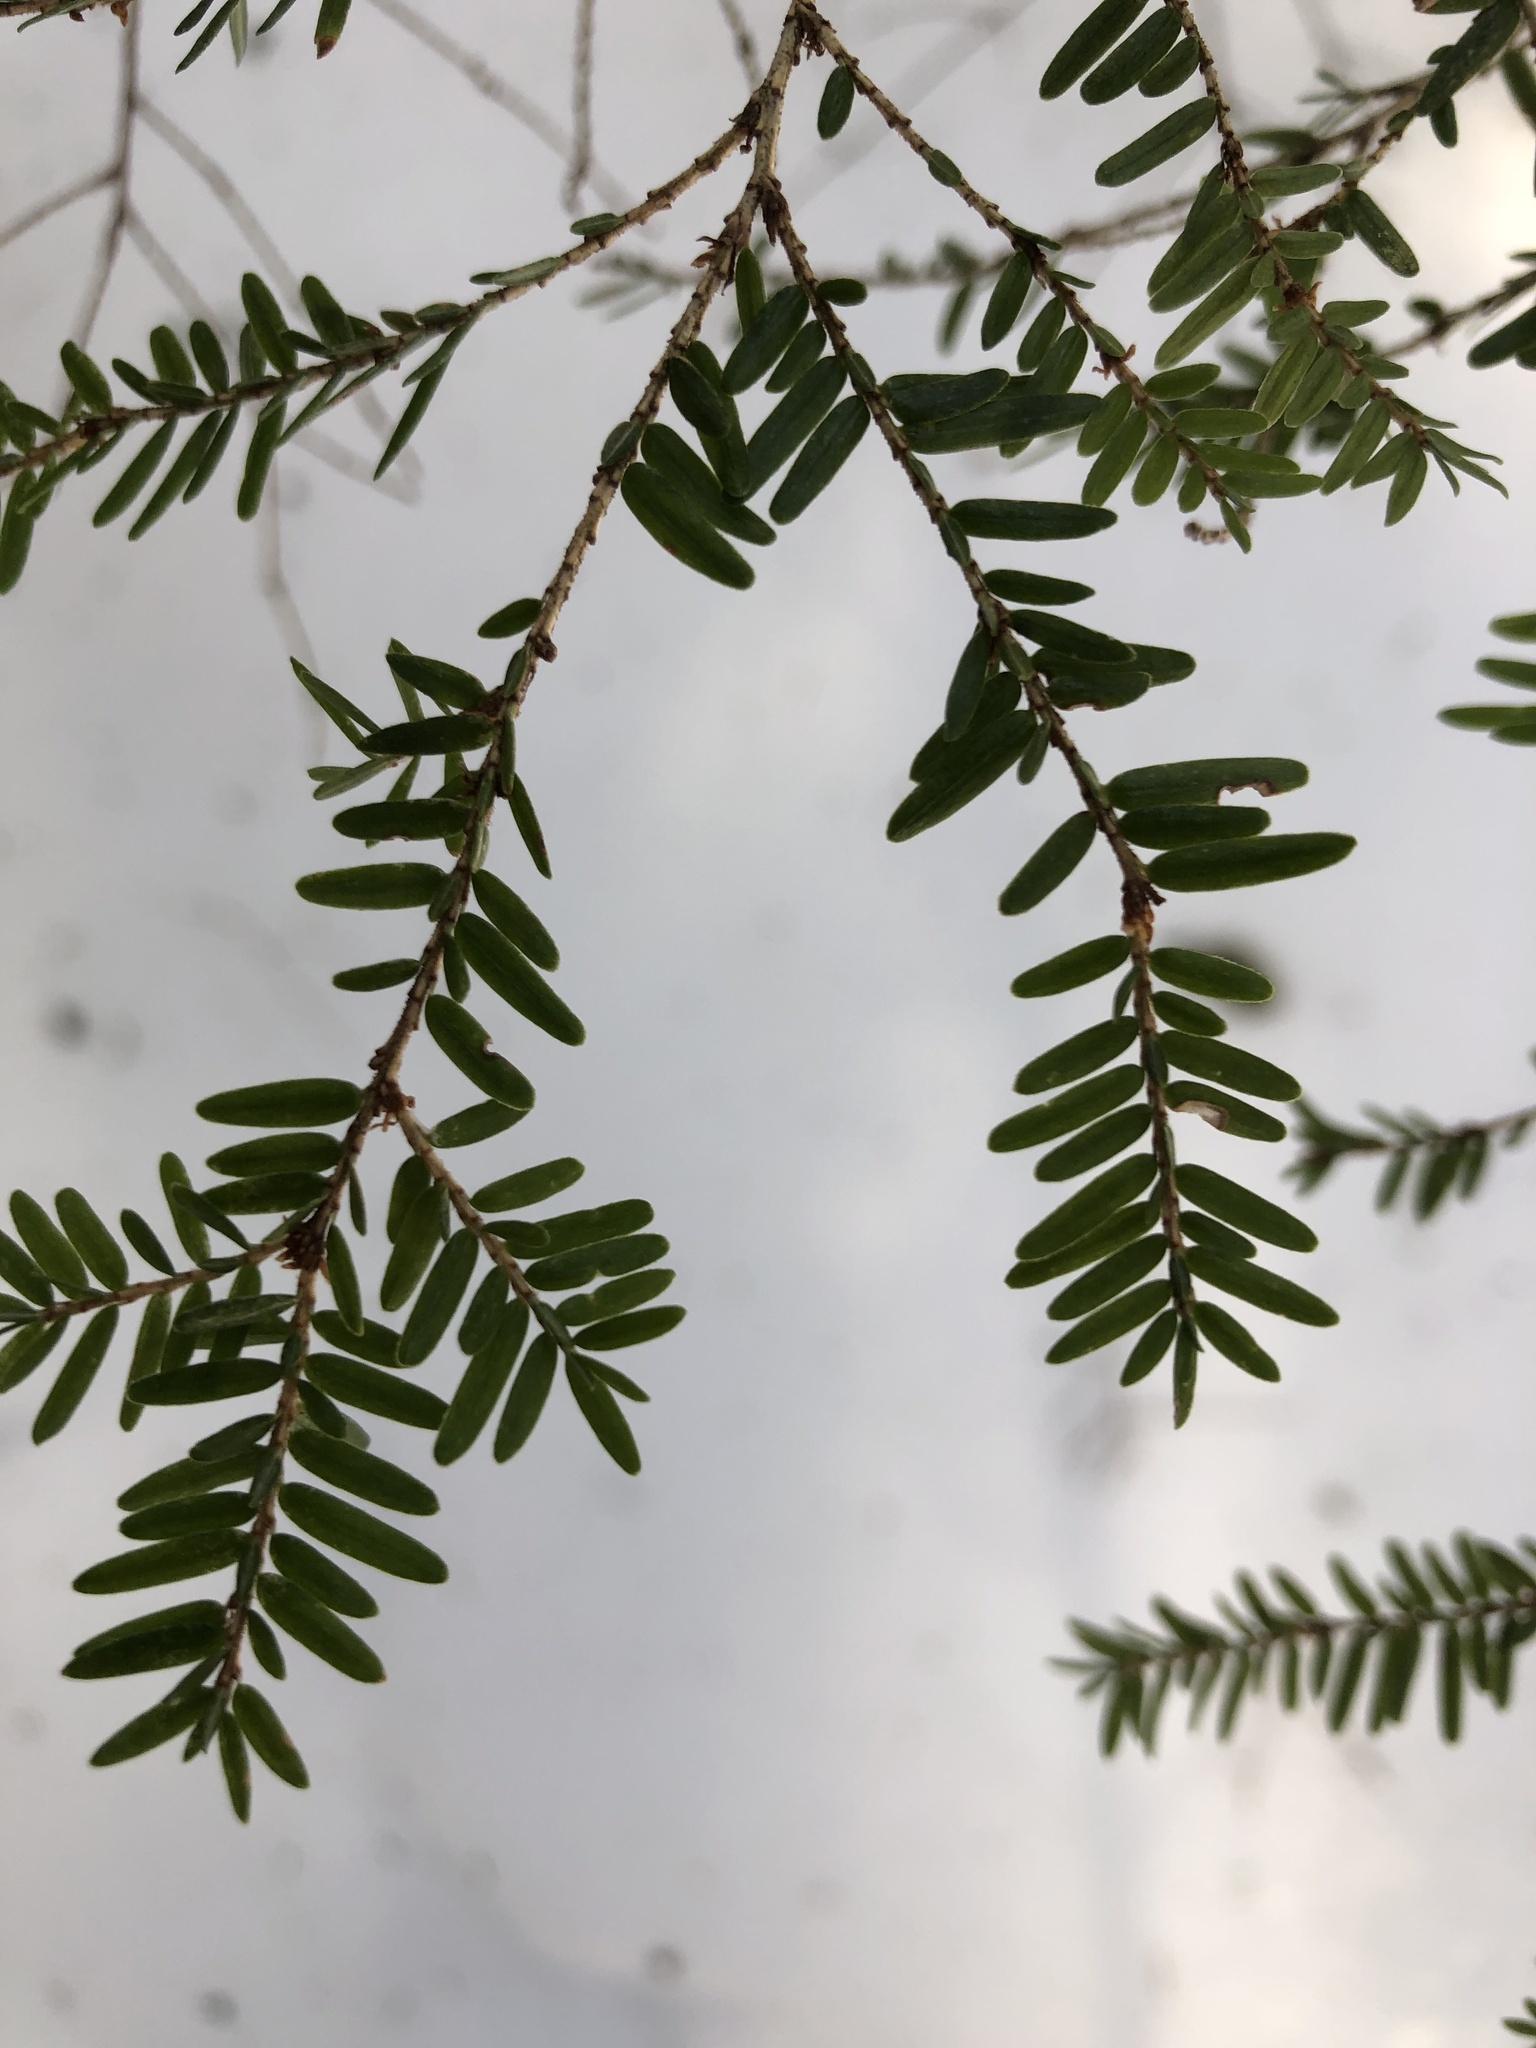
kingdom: Plantae
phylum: Tracheophyta
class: Pinopsida
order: Pinales
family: Pinaceae
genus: Tsuga
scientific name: Tsuga canadensis
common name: Eastern hemlock
